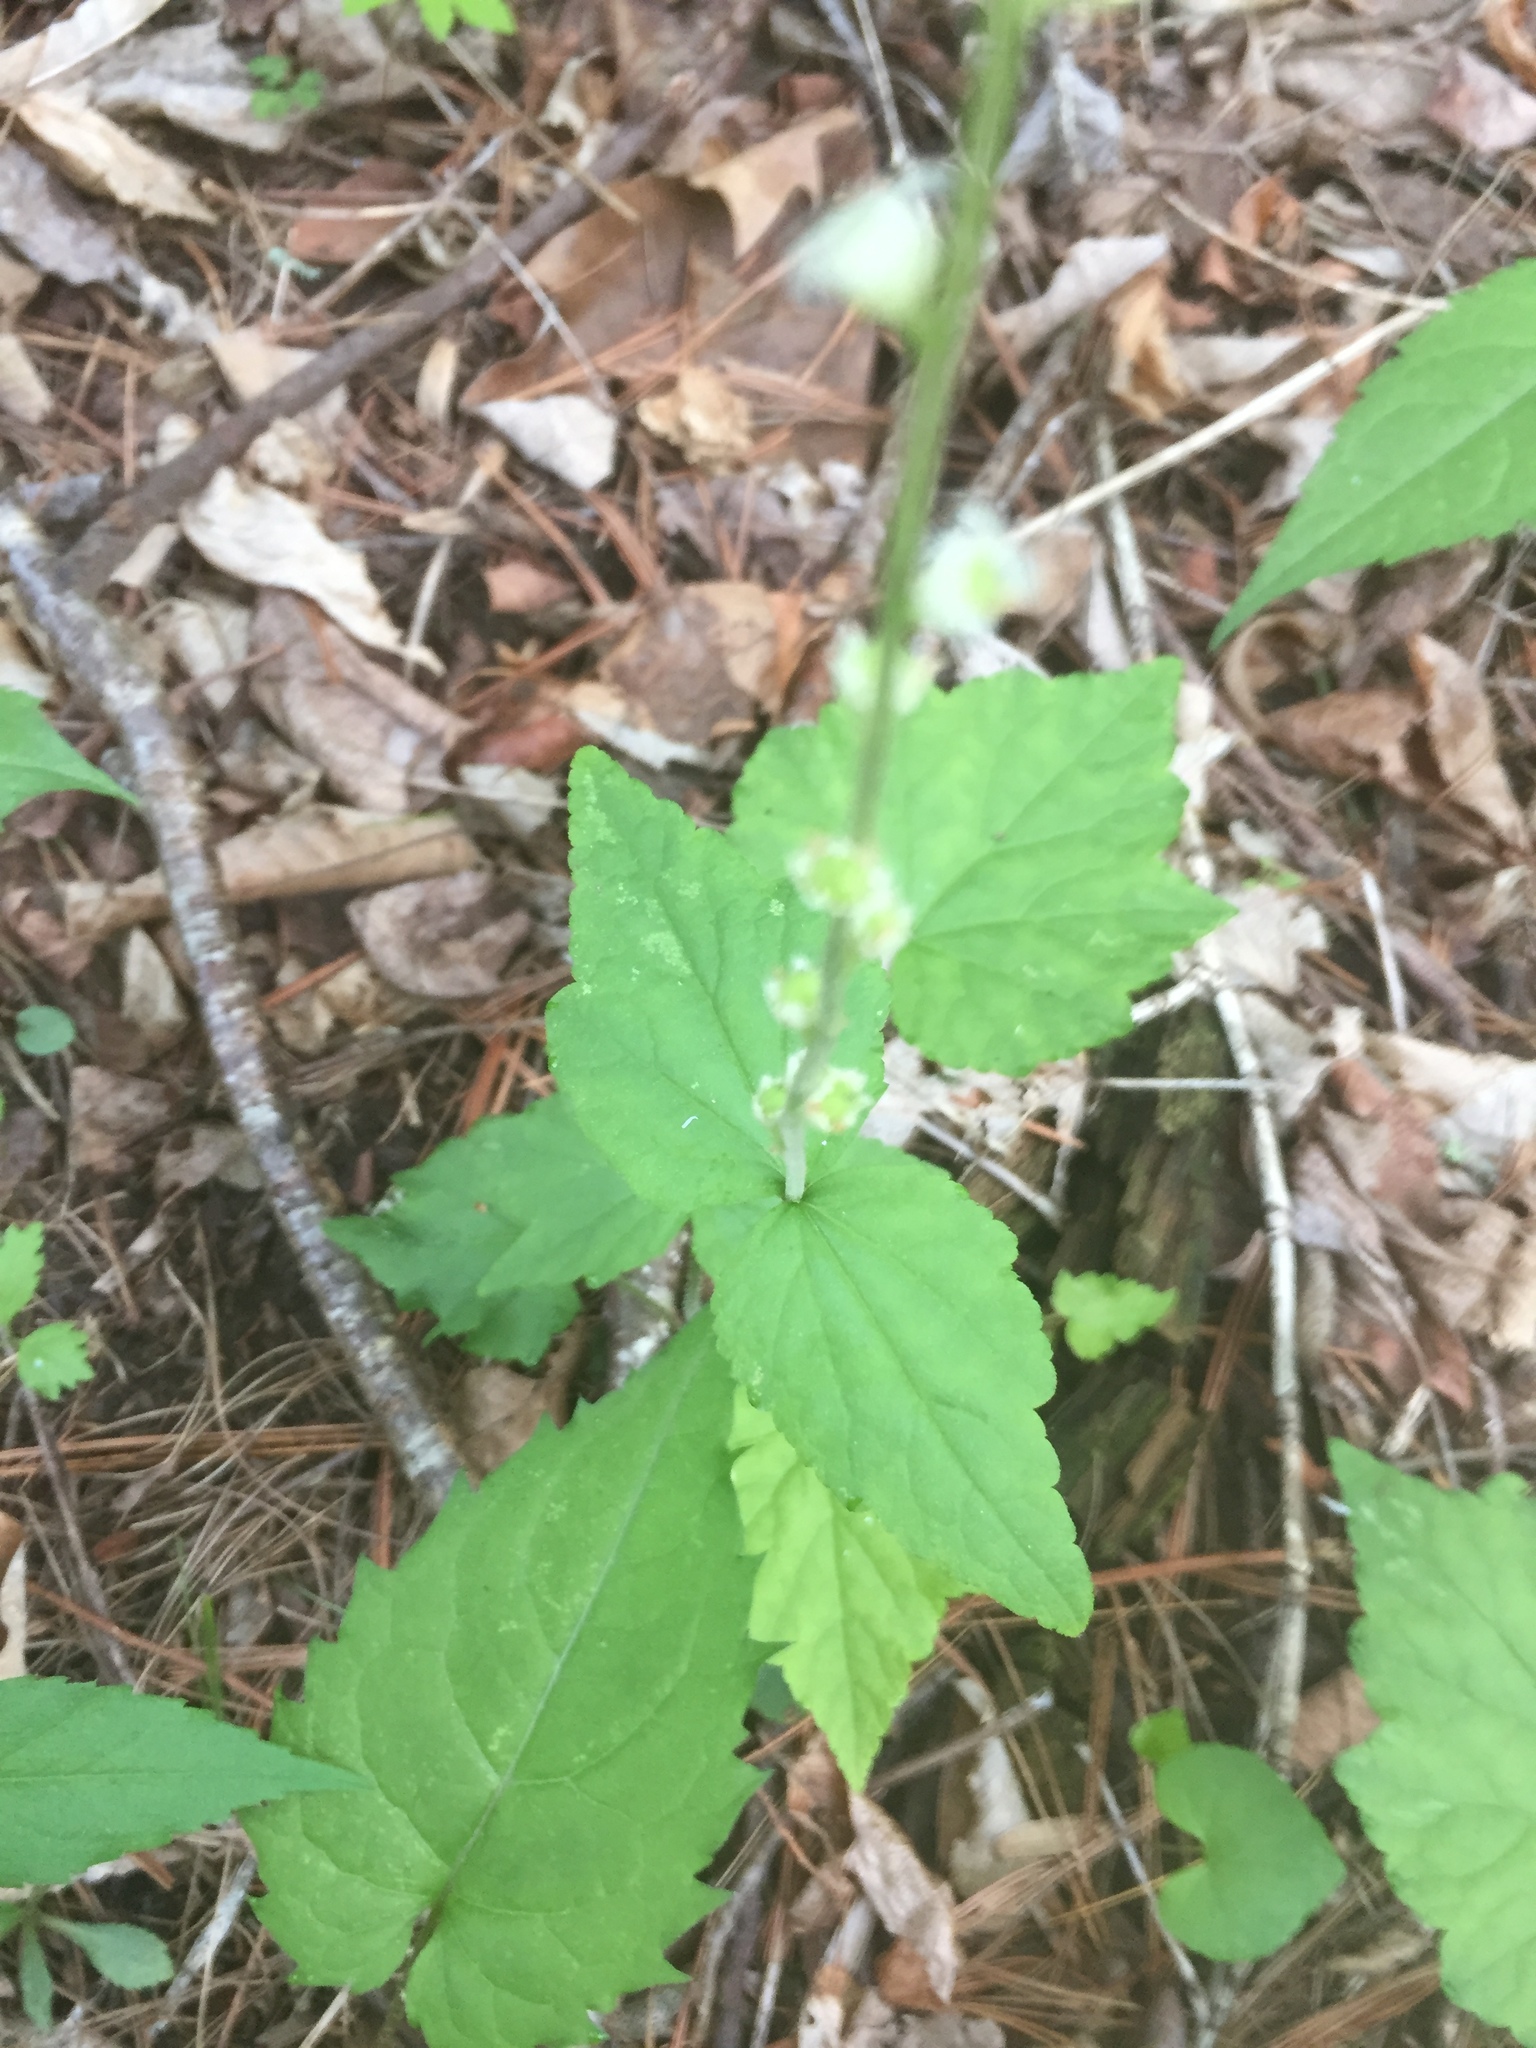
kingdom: Plantae
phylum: Tracheophyta
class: Magnoliopsida
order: Saxifragales
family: Saxifragaceae
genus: Mitella
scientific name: Mitella diphylla
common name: Coolwort
